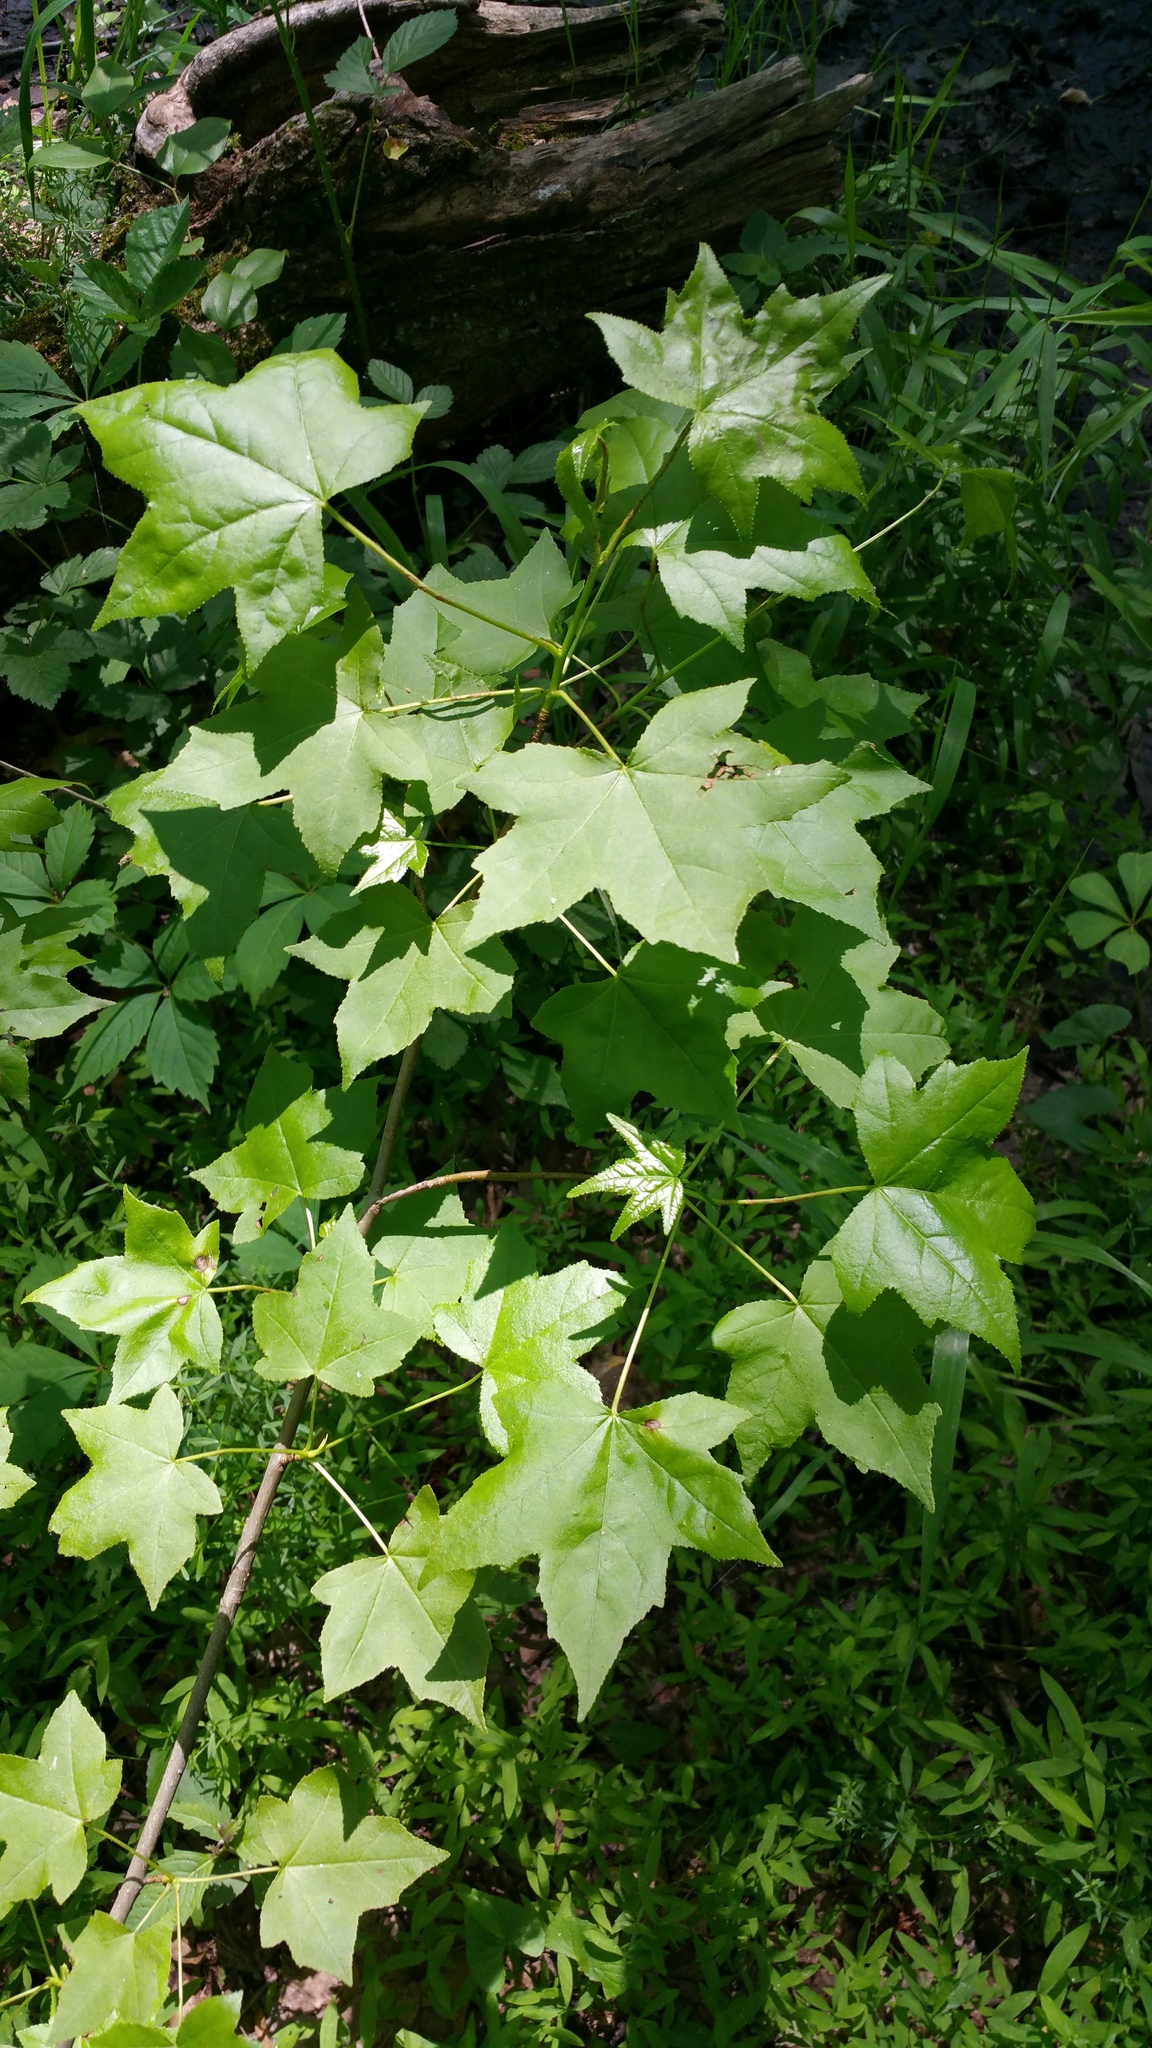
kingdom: Plantae
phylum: Tracheophyta
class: Magnoliopsida
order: Saxifragales
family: Altingiaceae
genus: Liquidambar
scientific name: Liquidambar styraciflua
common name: Sweet gum
